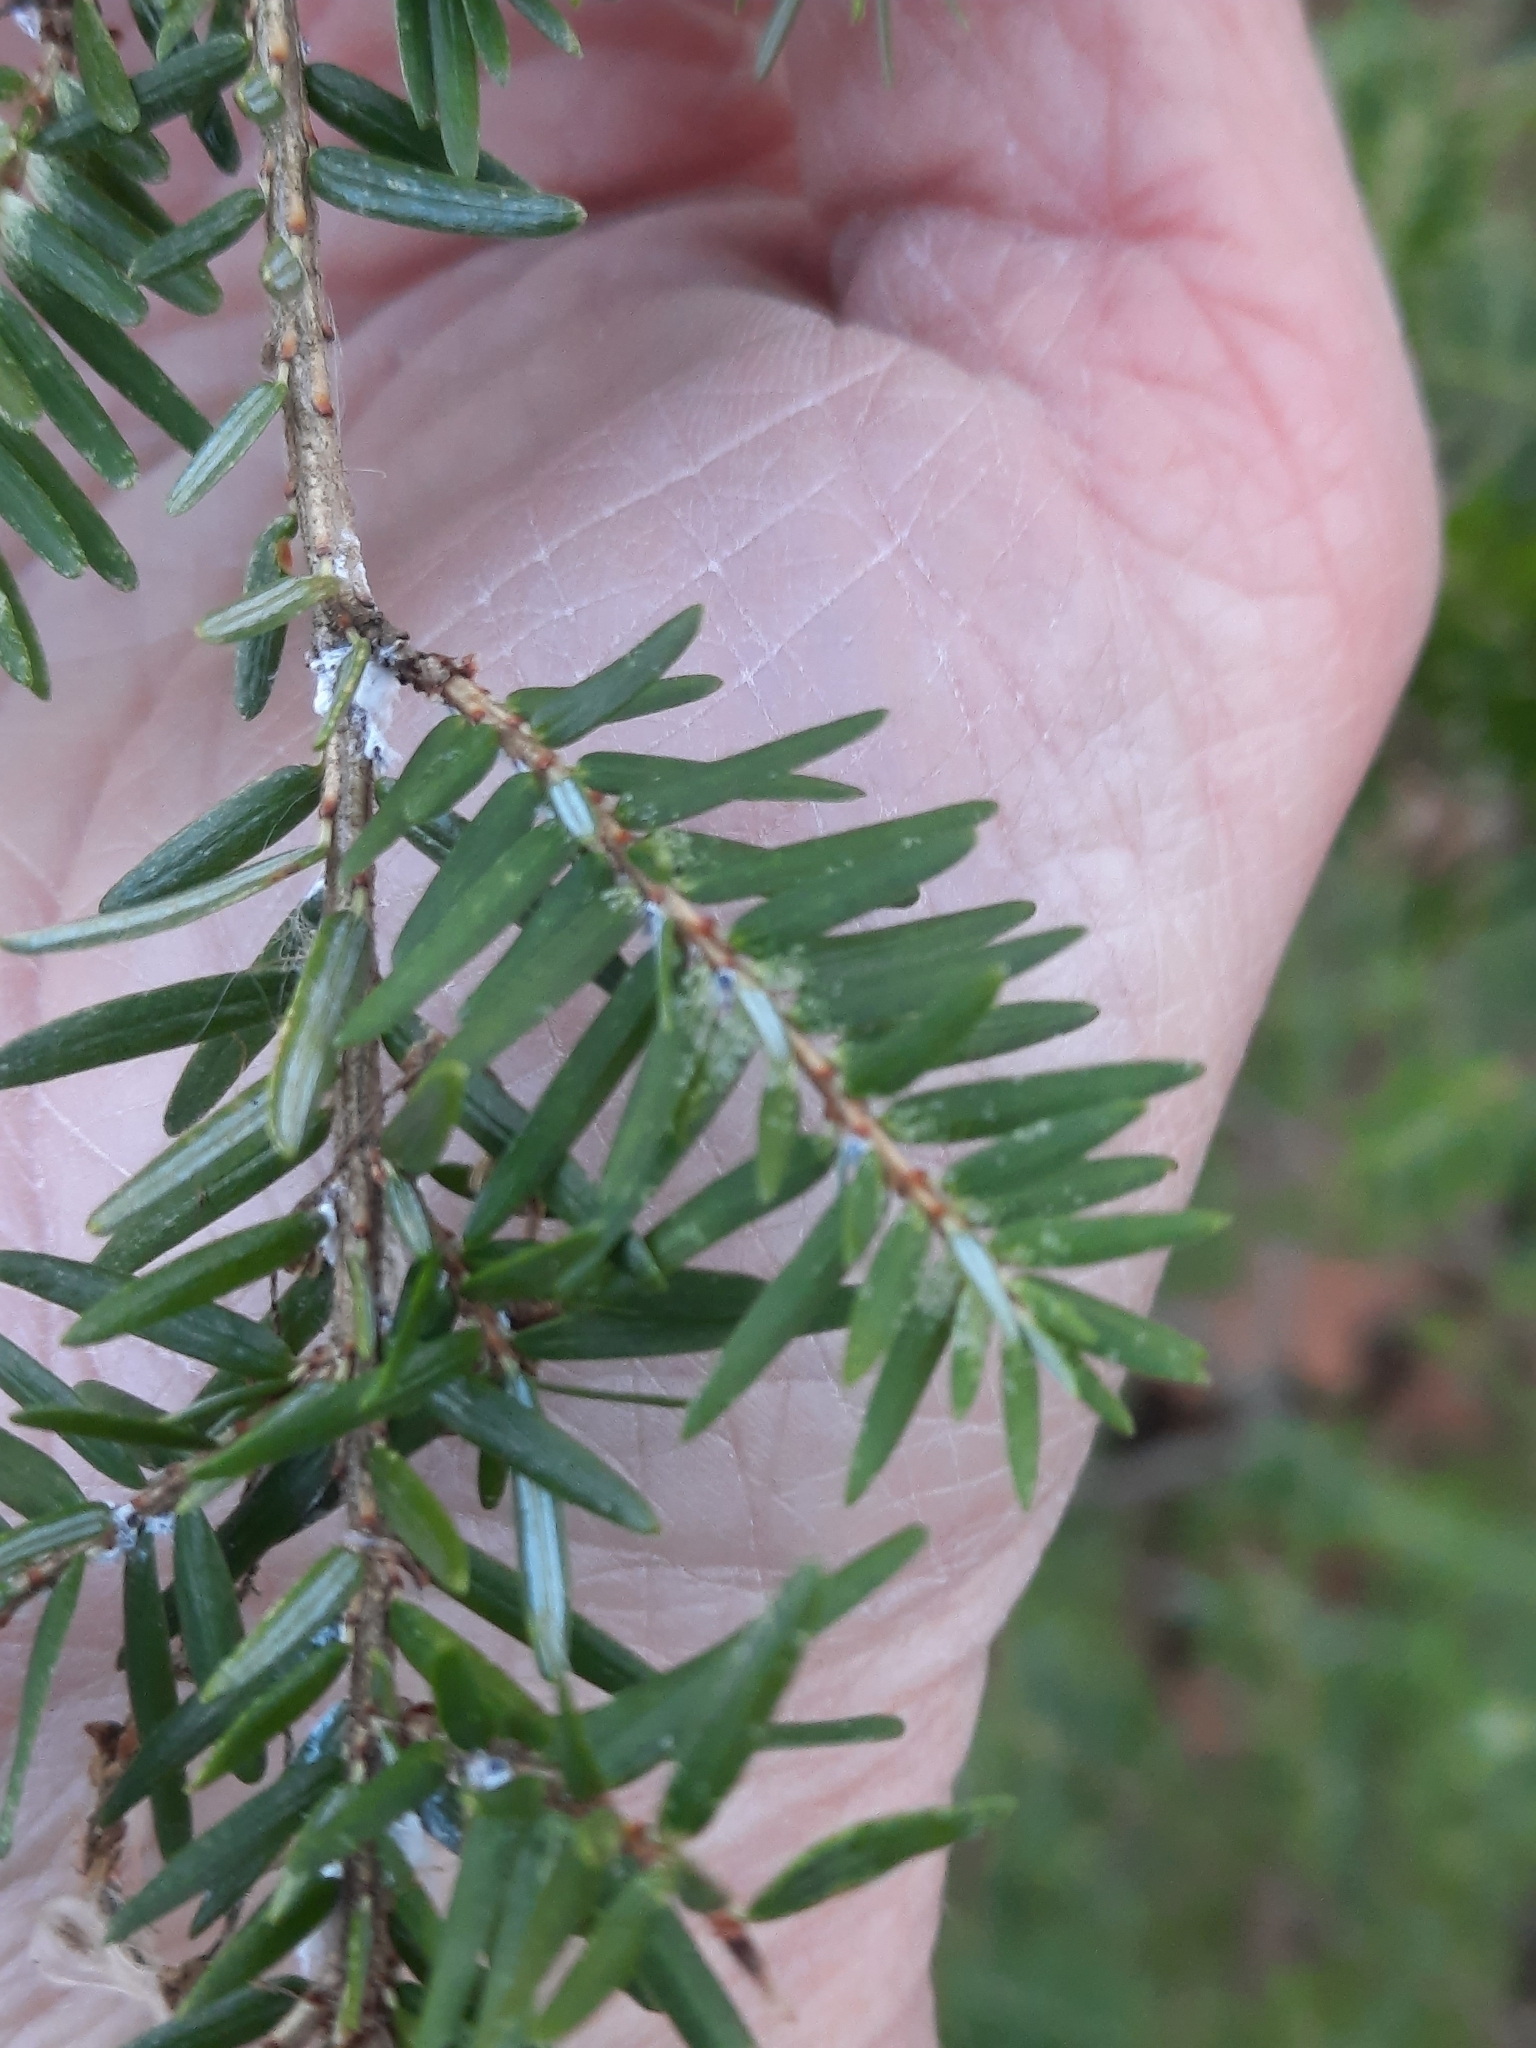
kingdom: Plantae
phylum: Tracheophyta
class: Pinopsida
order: Pinales
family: Pinaceae
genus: Tsuga
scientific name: Tsuga canadensis
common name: Eastern hemlock
